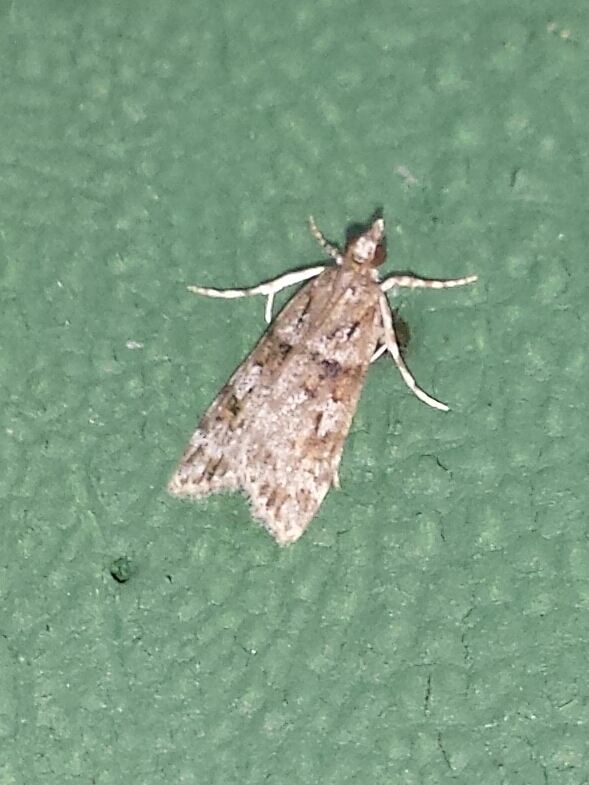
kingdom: Animalia
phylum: Arthropoda
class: Insecta
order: Lepidoptera
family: Crambidae
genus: Scoparia
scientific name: Scoparia biplagialis
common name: Double-striped scoparia moth
